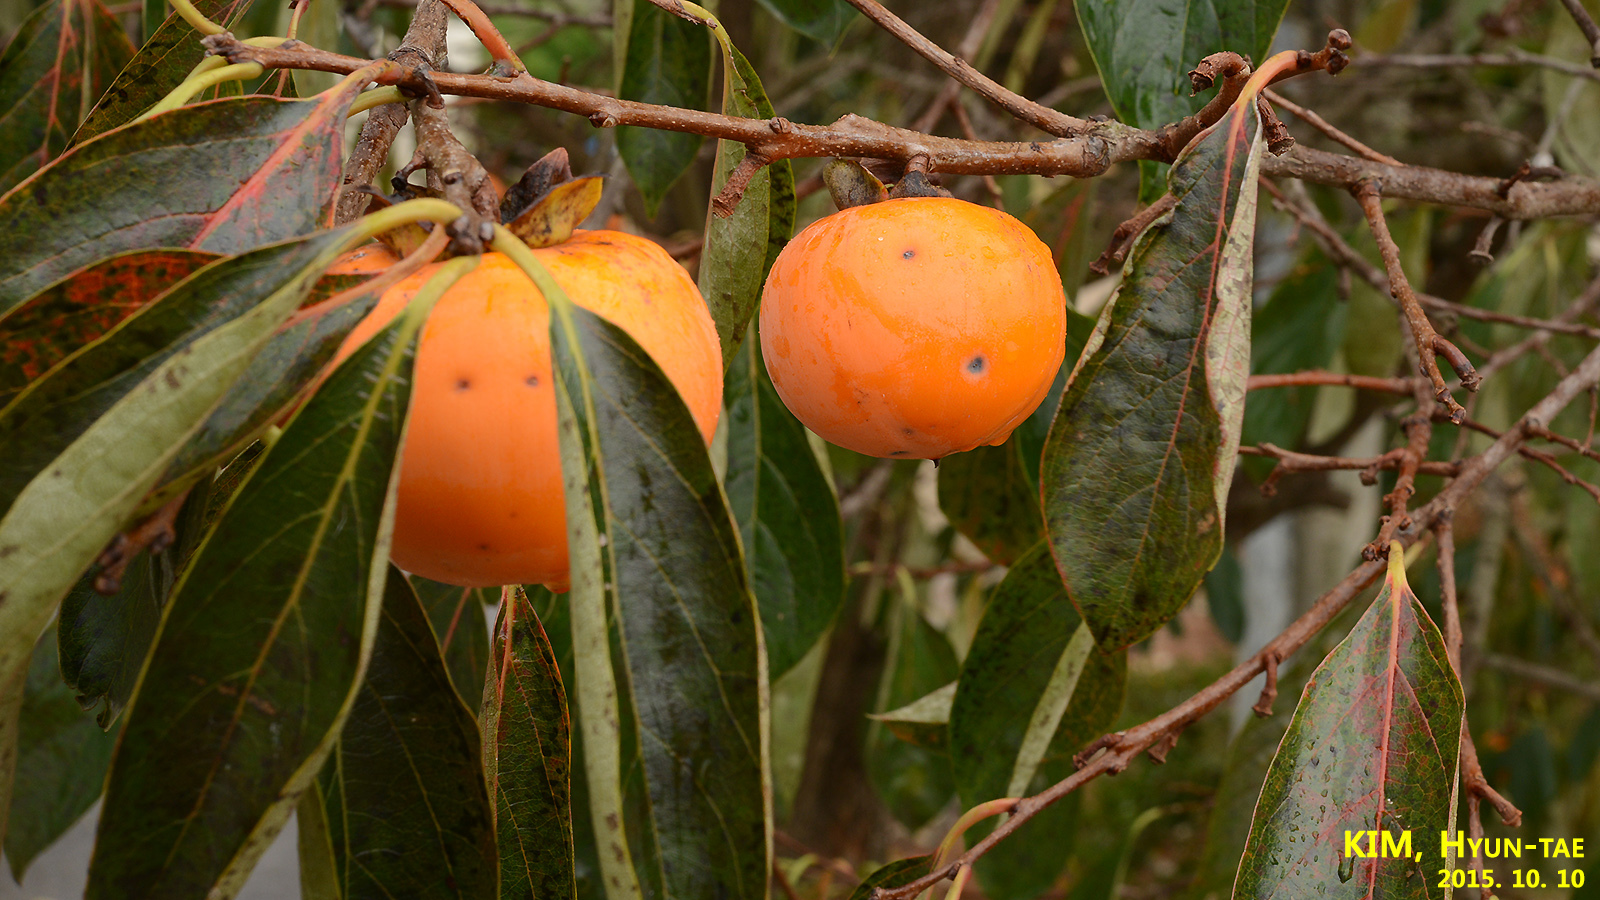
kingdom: Plantae
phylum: Tracheophyta
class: Magnoliopsida
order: Ericales
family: Ebenaceae
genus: Diospyros
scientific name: Diospyros kaki
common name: Persimmon
